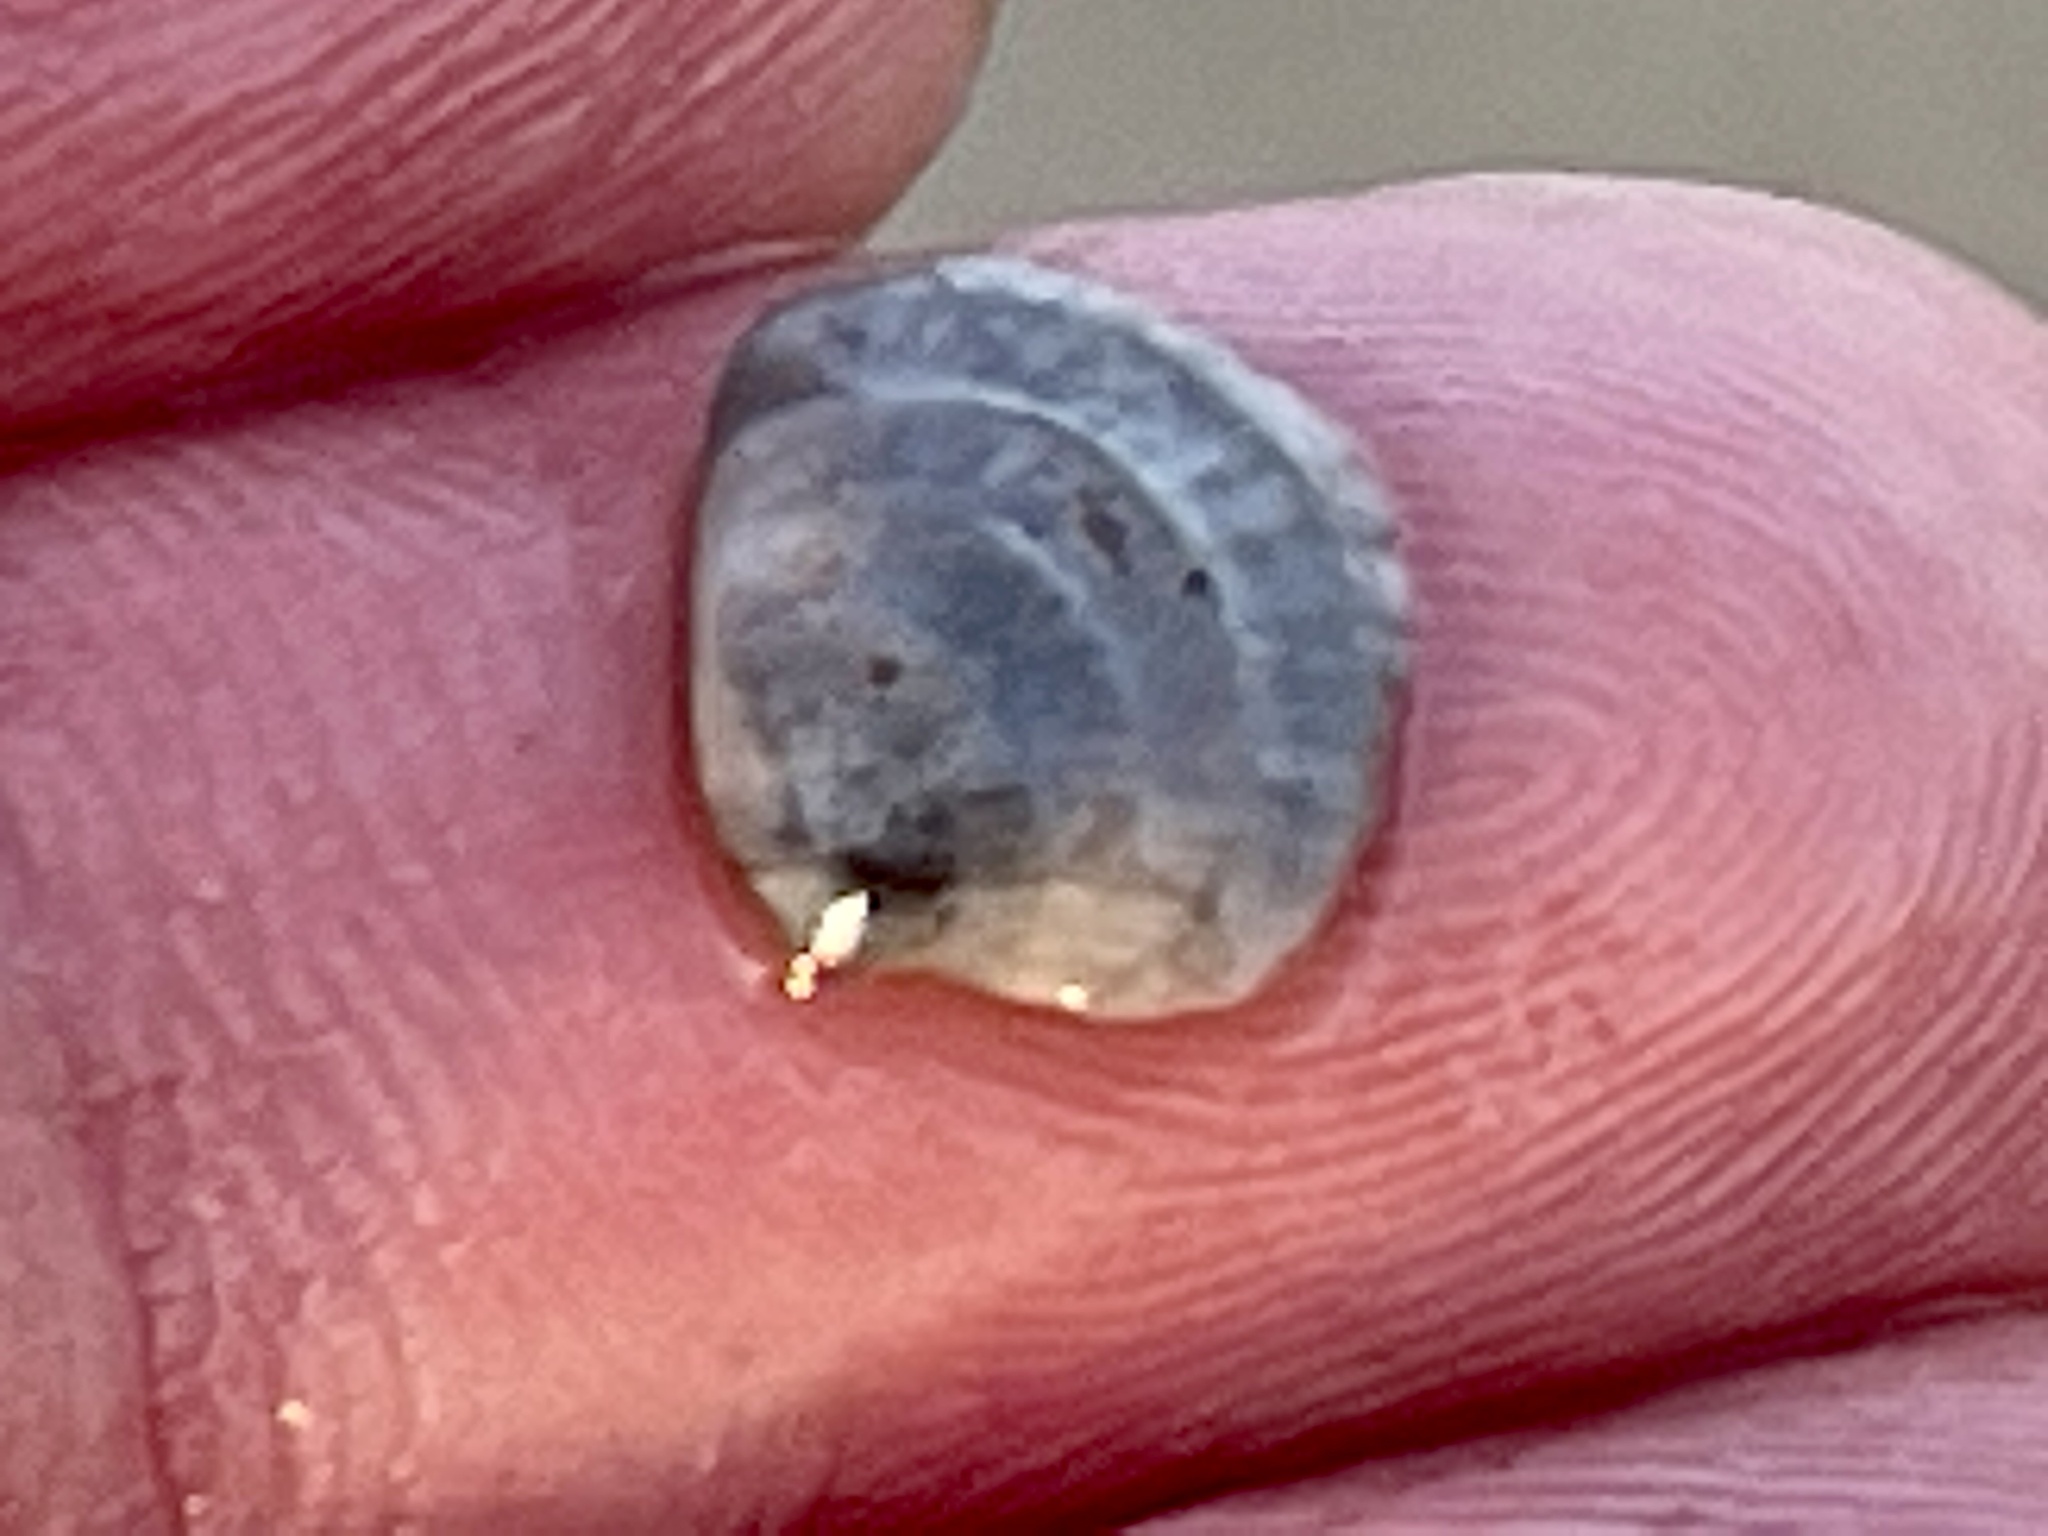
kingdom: Animalia
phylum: Mollusca
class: Bivalvia
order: Venerida
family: Veneridae
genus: Chione
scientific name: Chione elevata
